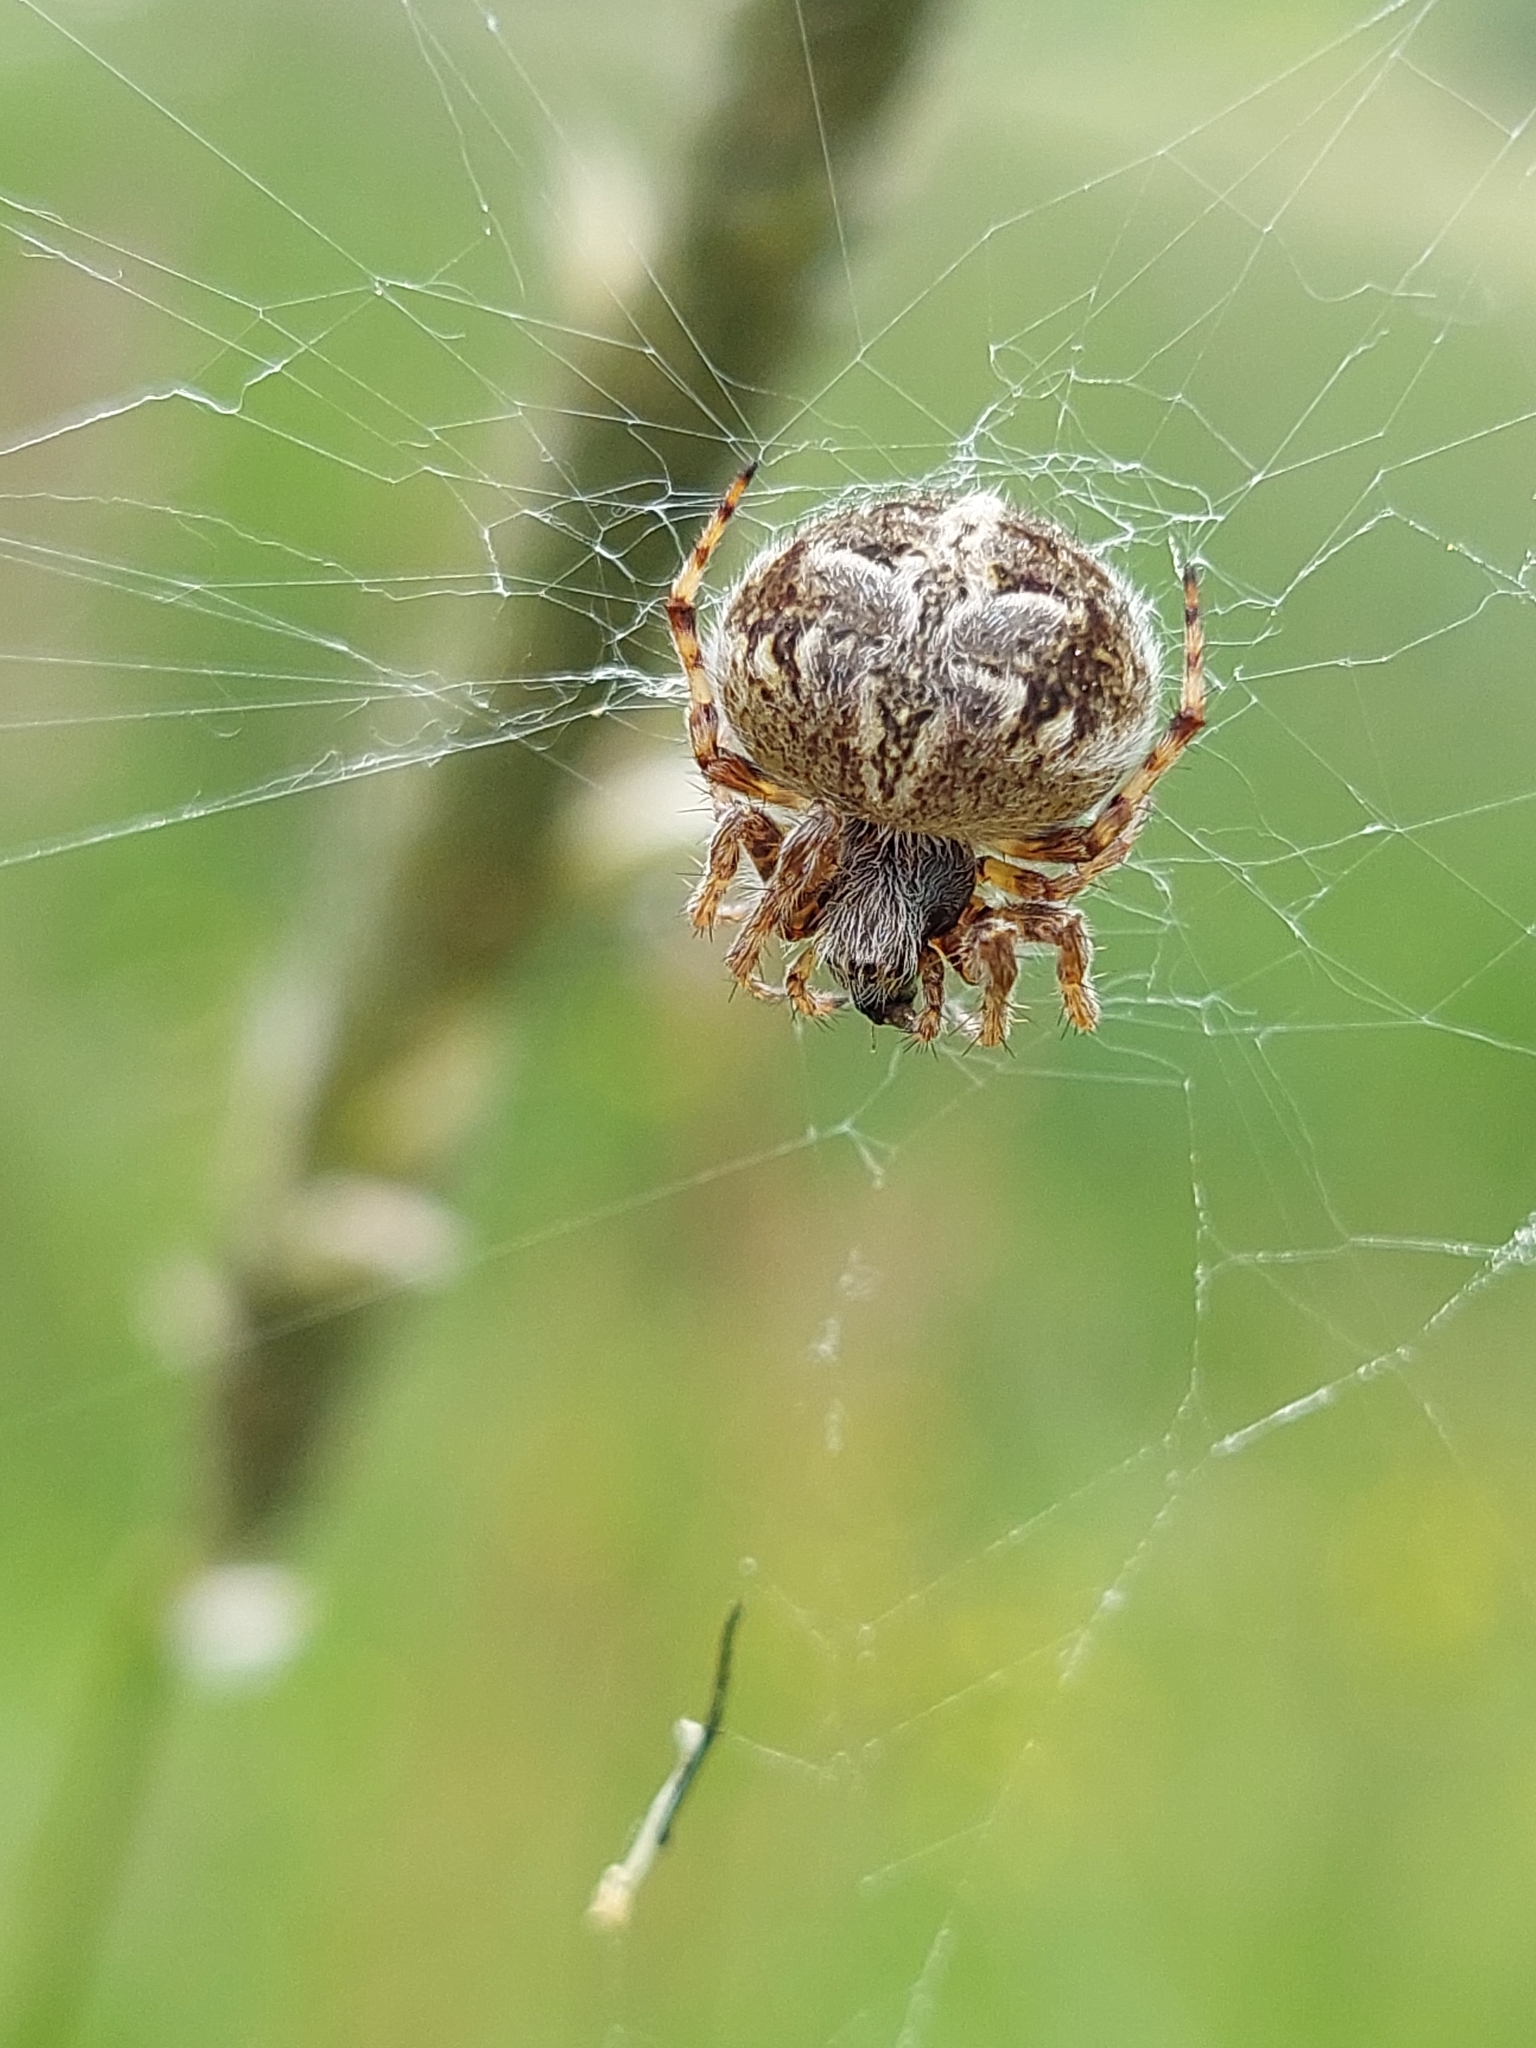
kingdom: Animalia
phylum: Arthropoda
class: Arachnida
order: Araneae
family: Araneidae
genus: Agalenatea
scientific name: Agalenatea redii
